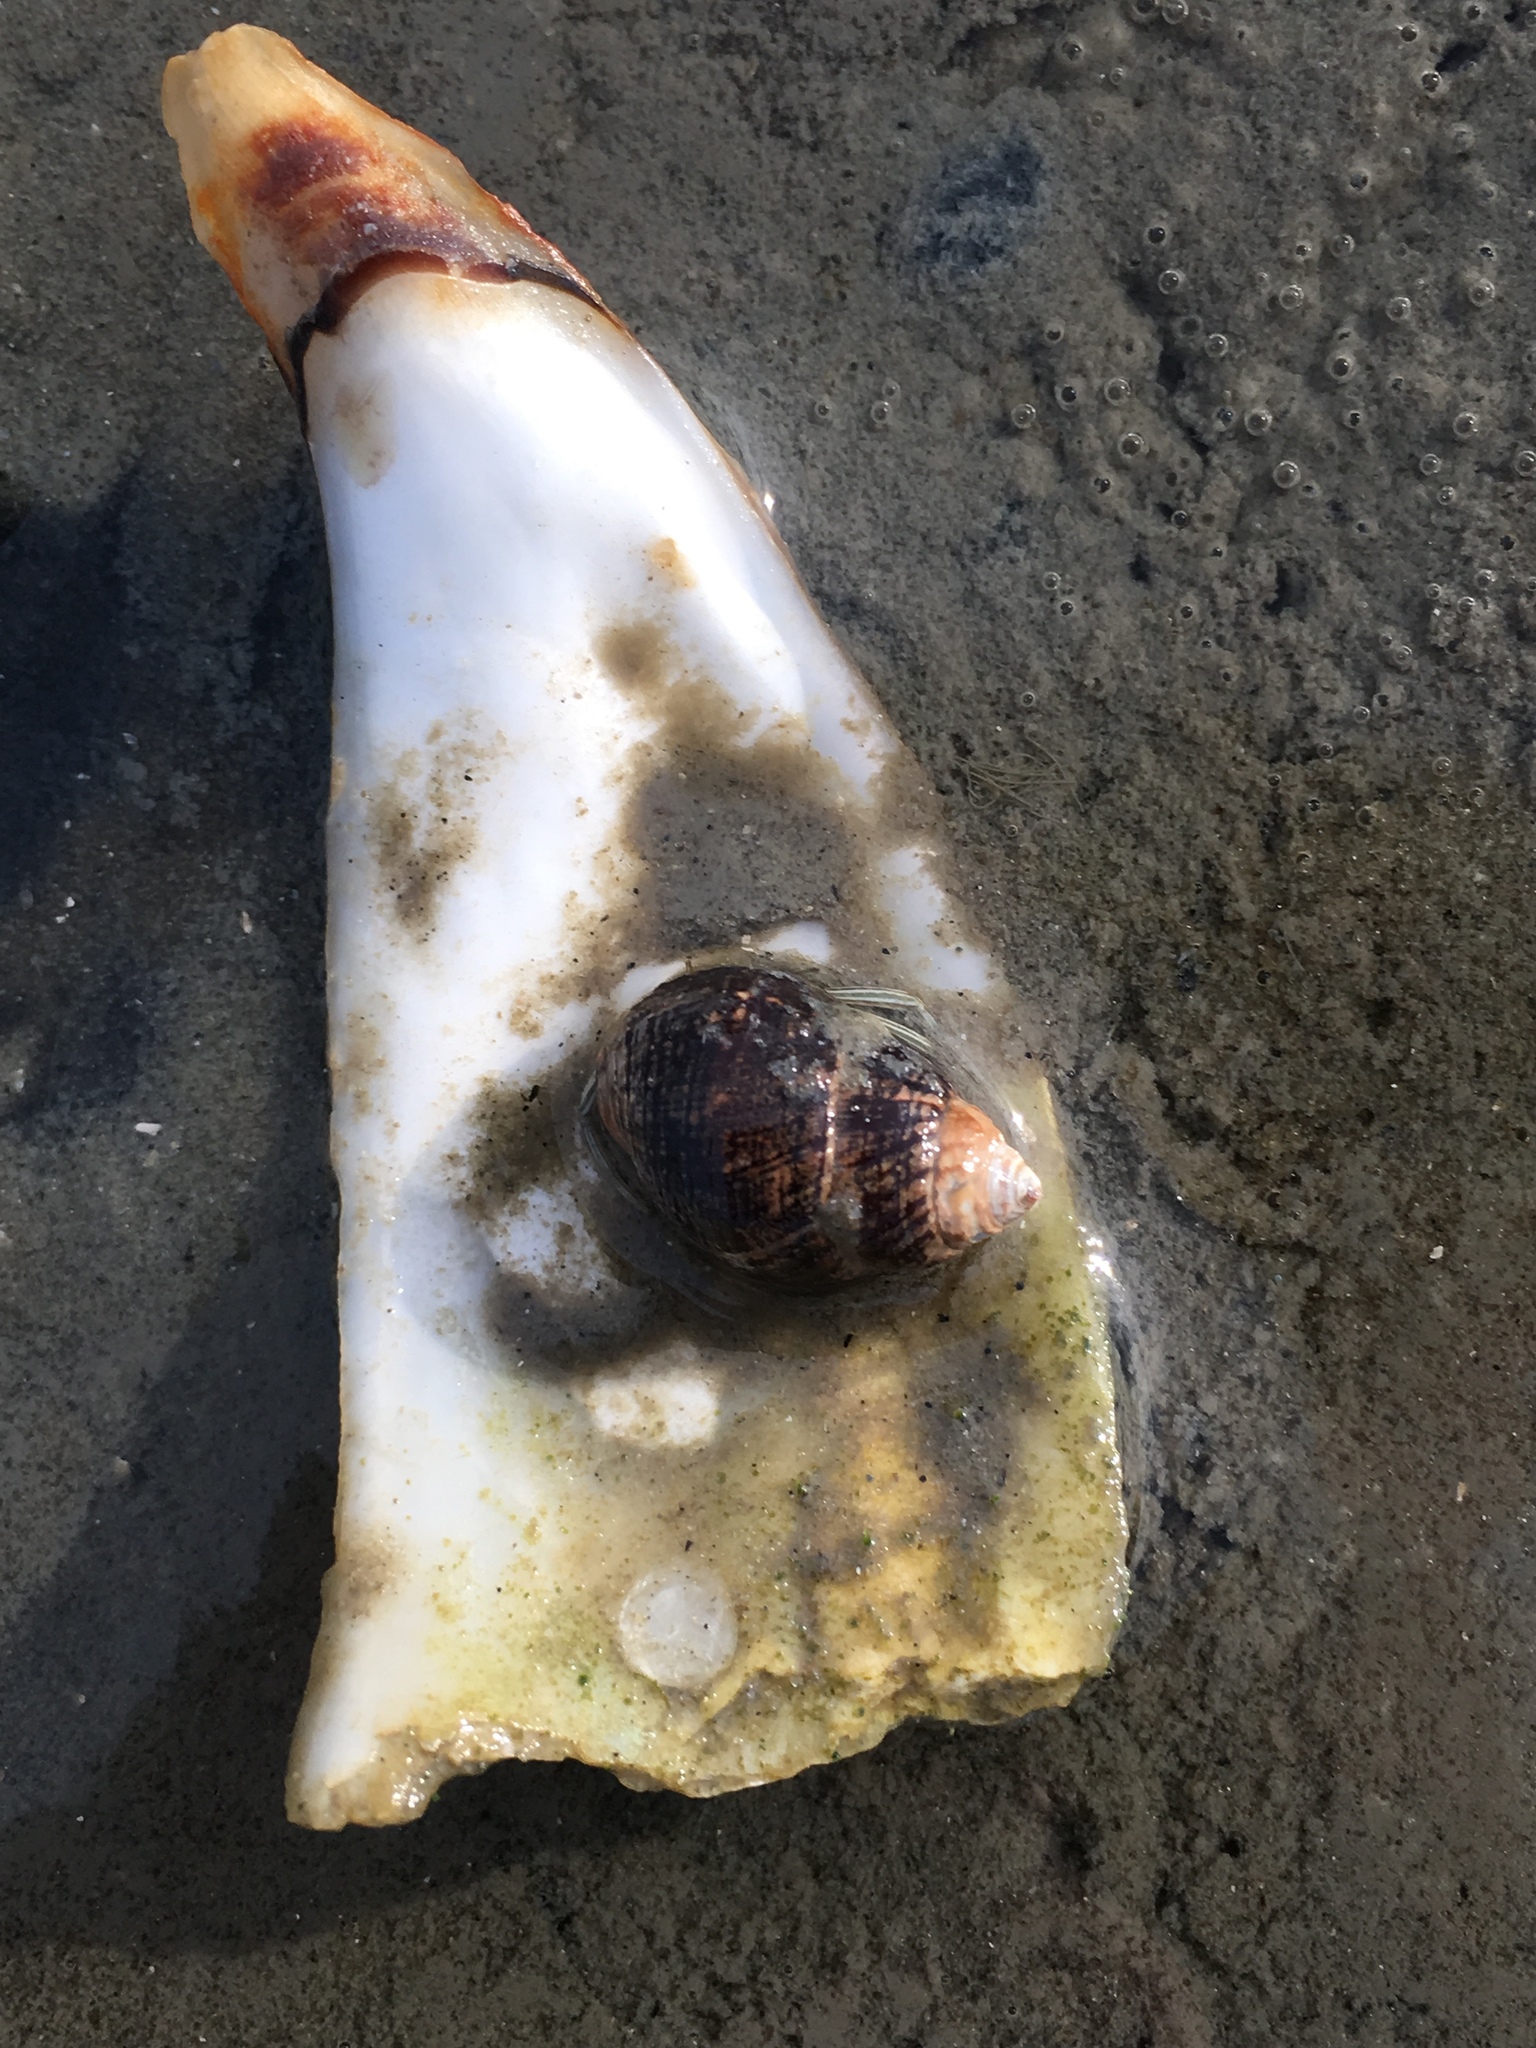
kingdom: Animalia
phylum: Arthropoda
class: Malacostraca
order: Decapoda
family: Diogenidae
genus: Clibanarius
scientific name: Clibanarius vittatus
